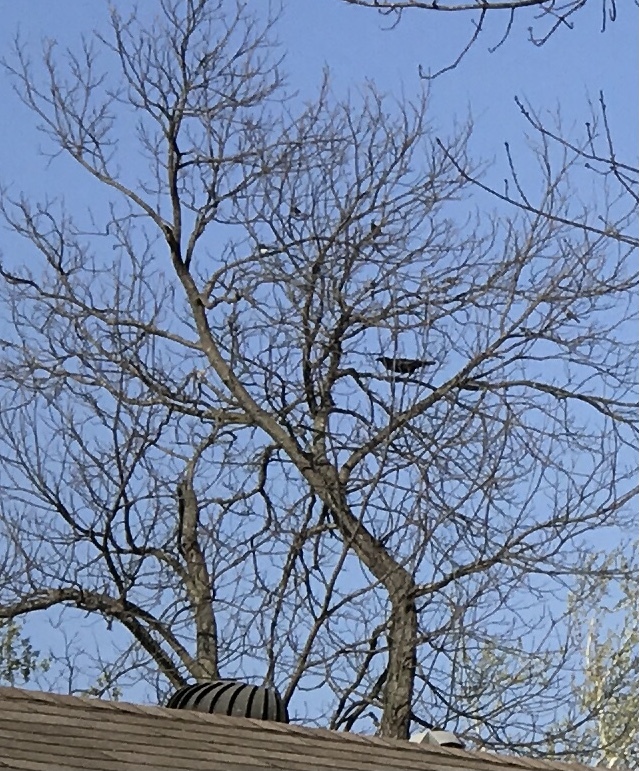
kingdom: Animalia
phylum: Chordata
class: Aves
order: Passeriformes
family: Corvidae
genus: Corvus
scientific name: Corvus corax
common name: Common raven
